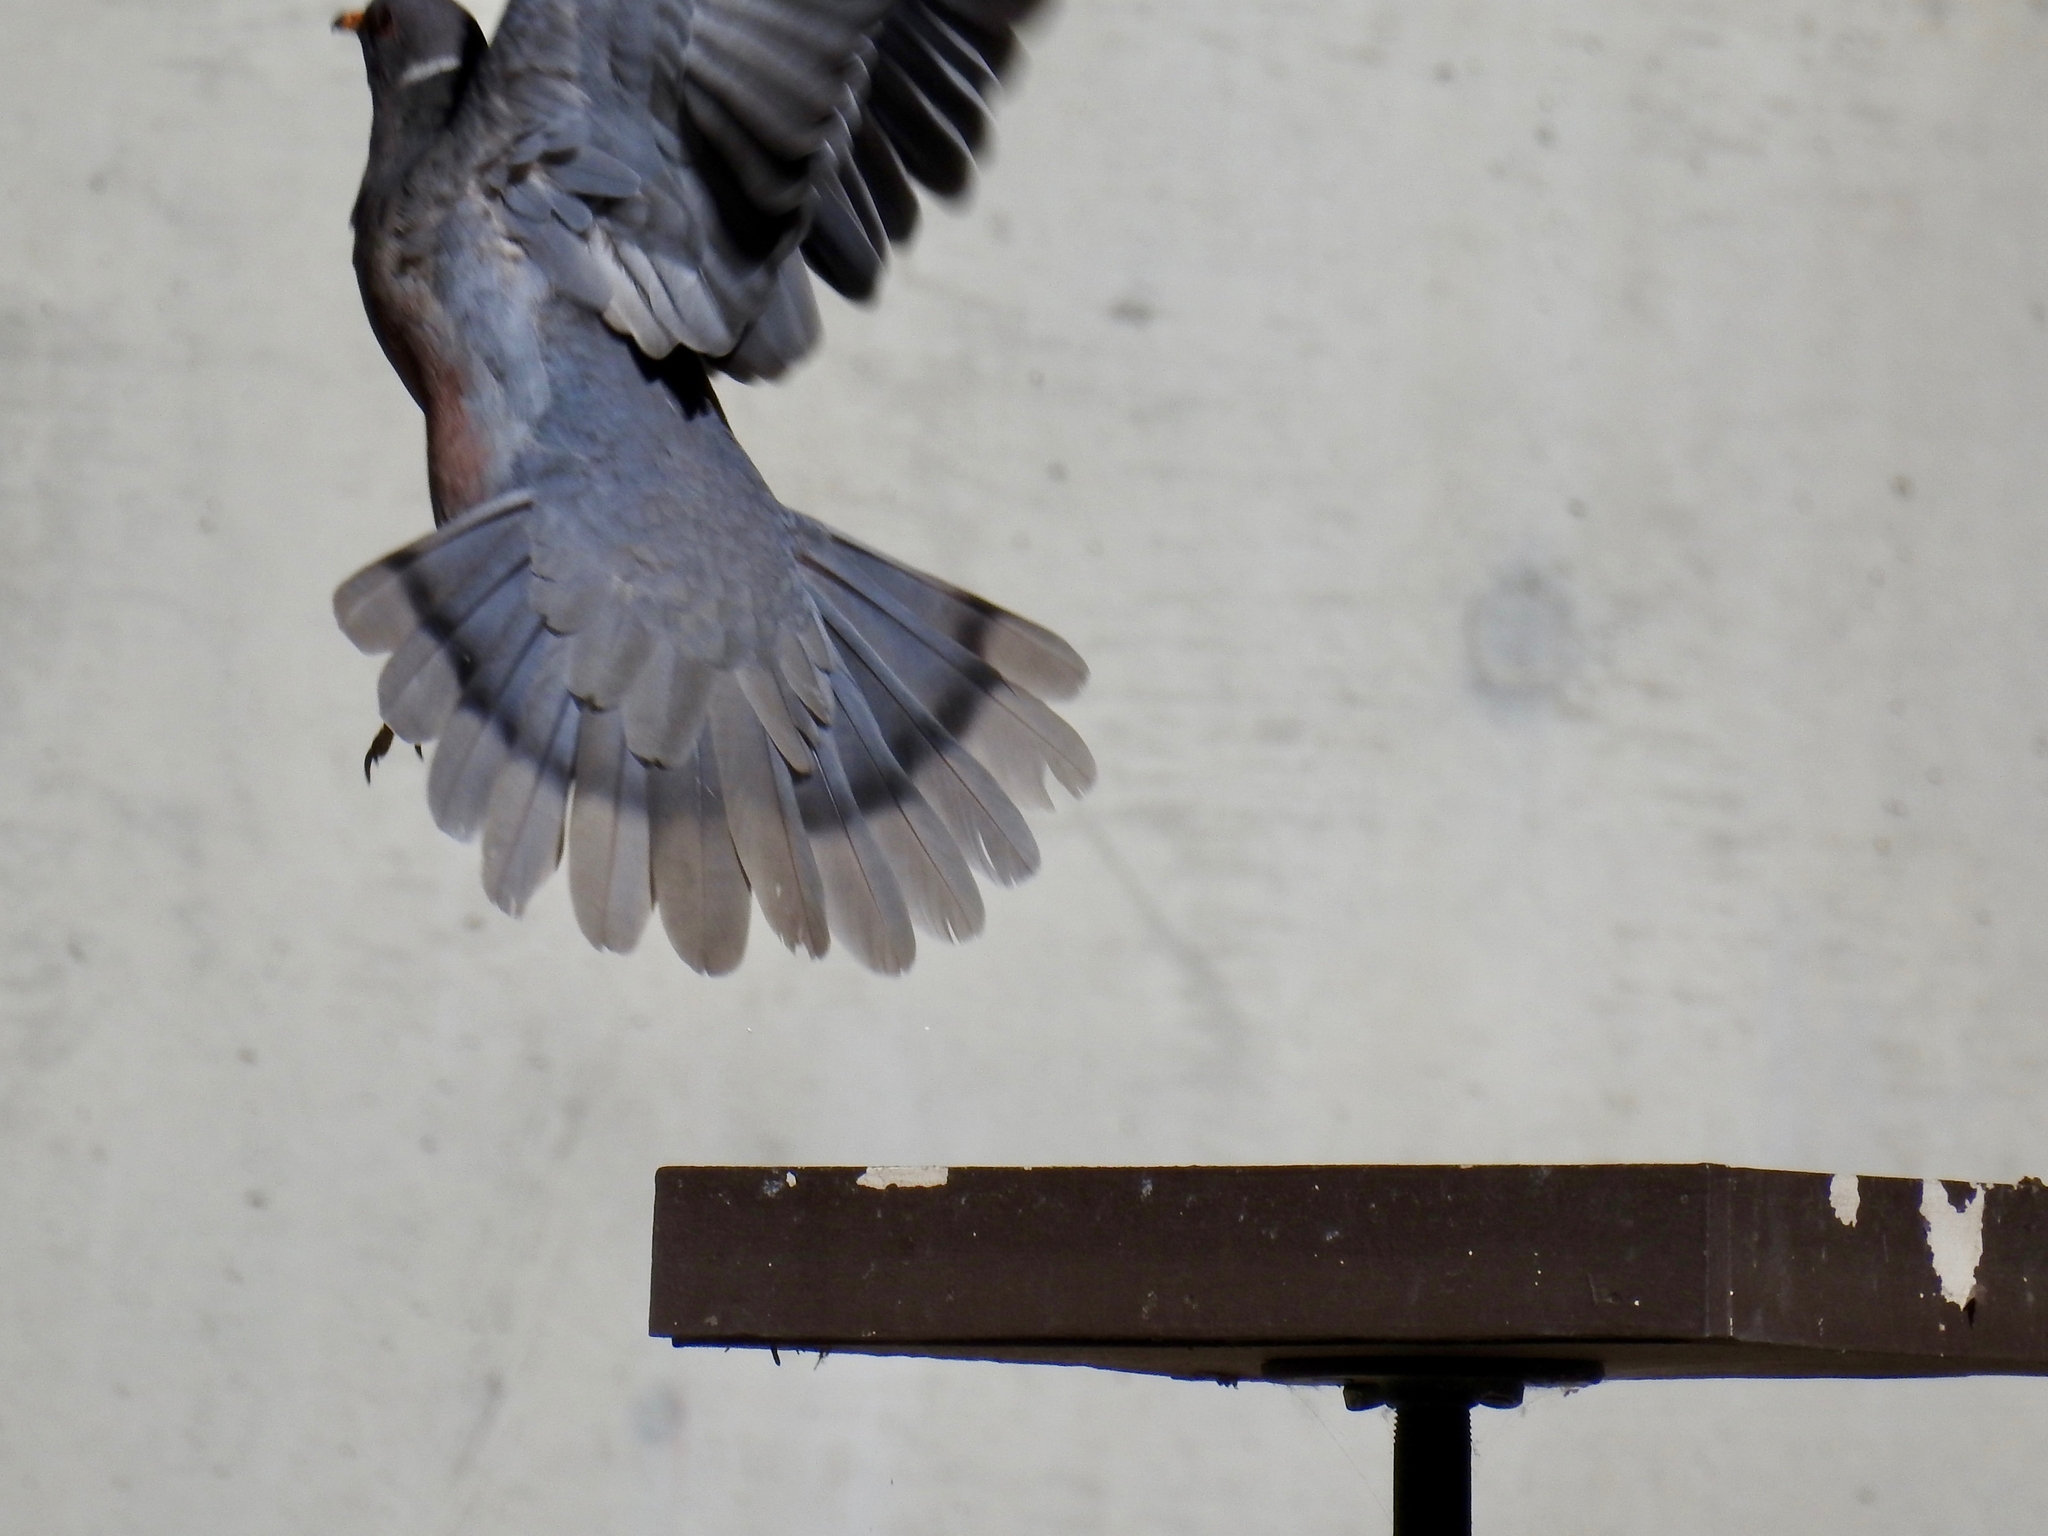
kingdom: Animalia
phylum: Chordata
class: Aves
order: Columbiformes
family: Columbidae
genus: Patagioenas
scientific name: Patagioenas fasciata
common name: Band-tailed pigeon
